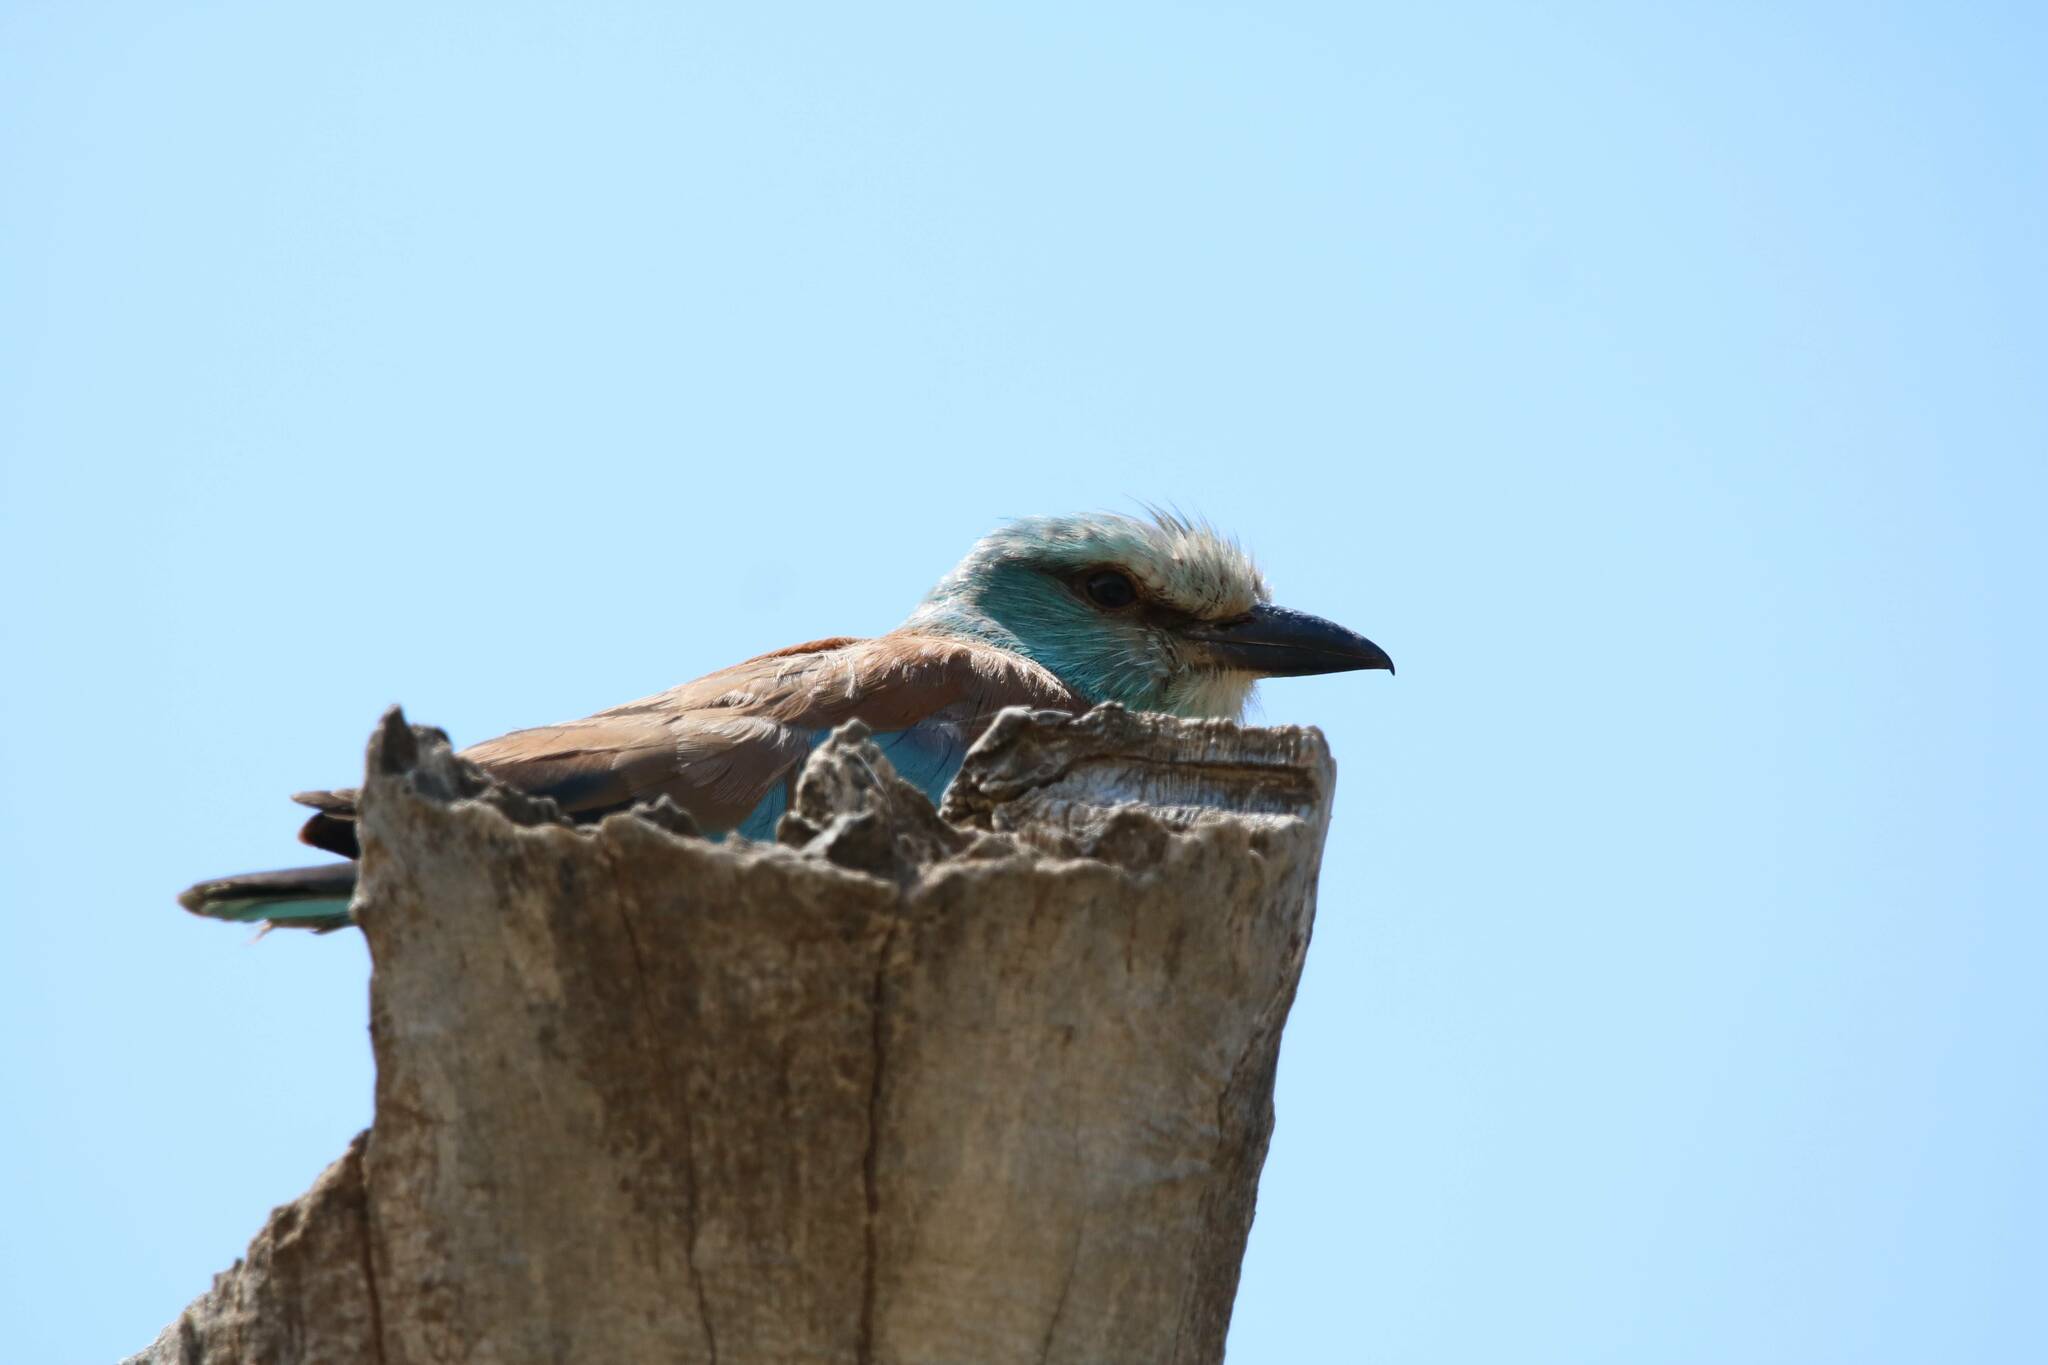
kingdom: Animalia
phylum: Chordata
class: Aves
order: Coraciiformes
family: Coraciidae
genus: Coracias
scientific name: Coracias garrulus
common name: European roller
